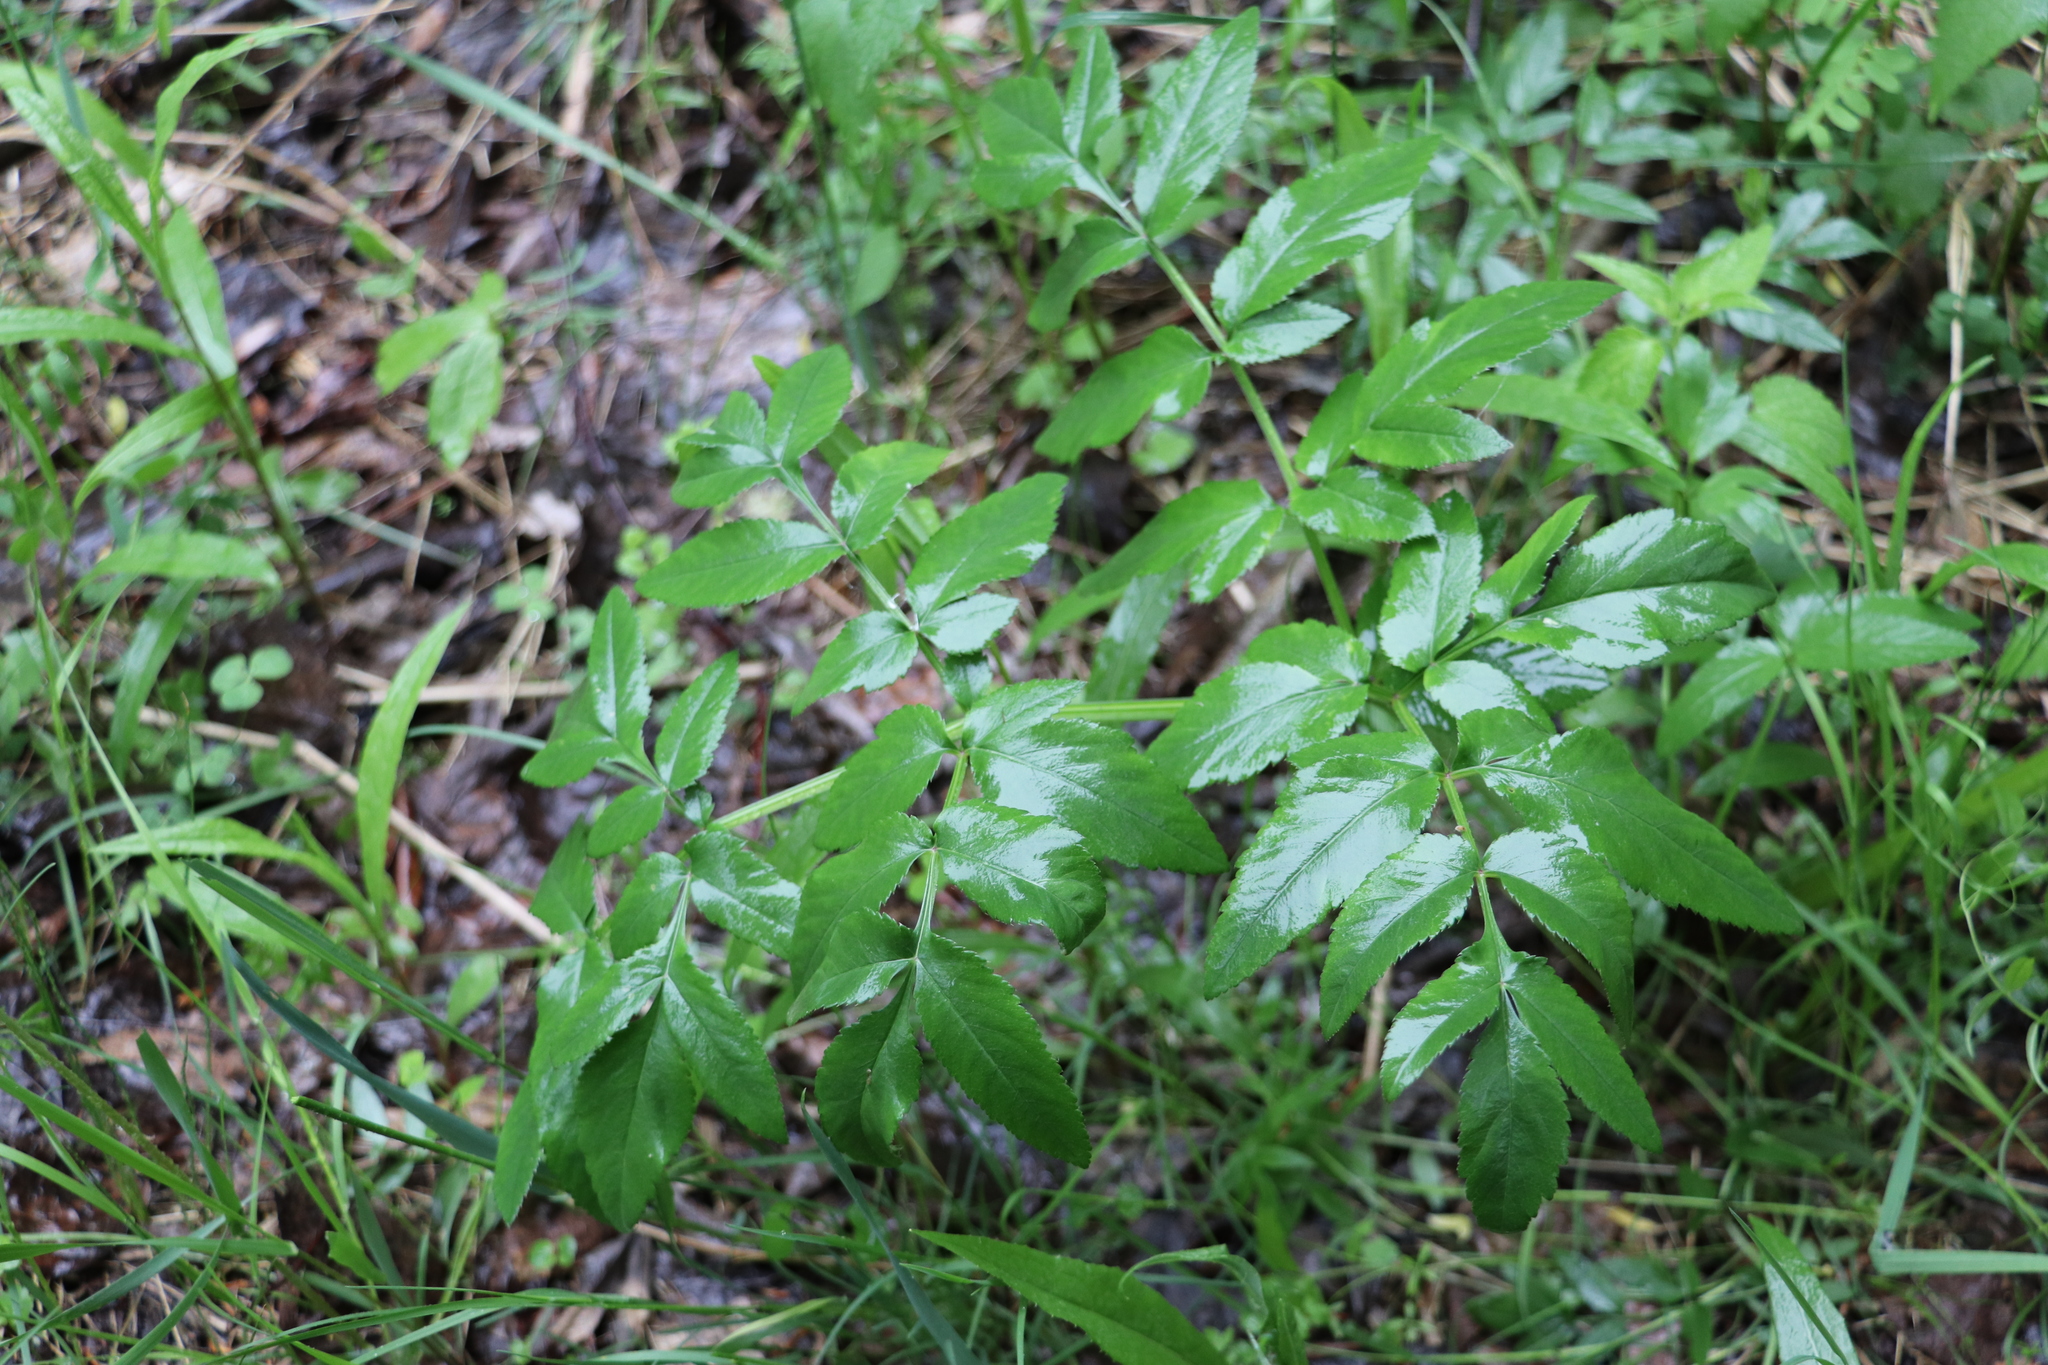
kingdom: Plantae
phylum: Tracheophyta
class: Magnoliopsida
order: Apiales
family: Apiaceae
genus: Angelica
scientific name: Angelica sylvestris
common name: Wild angelica
